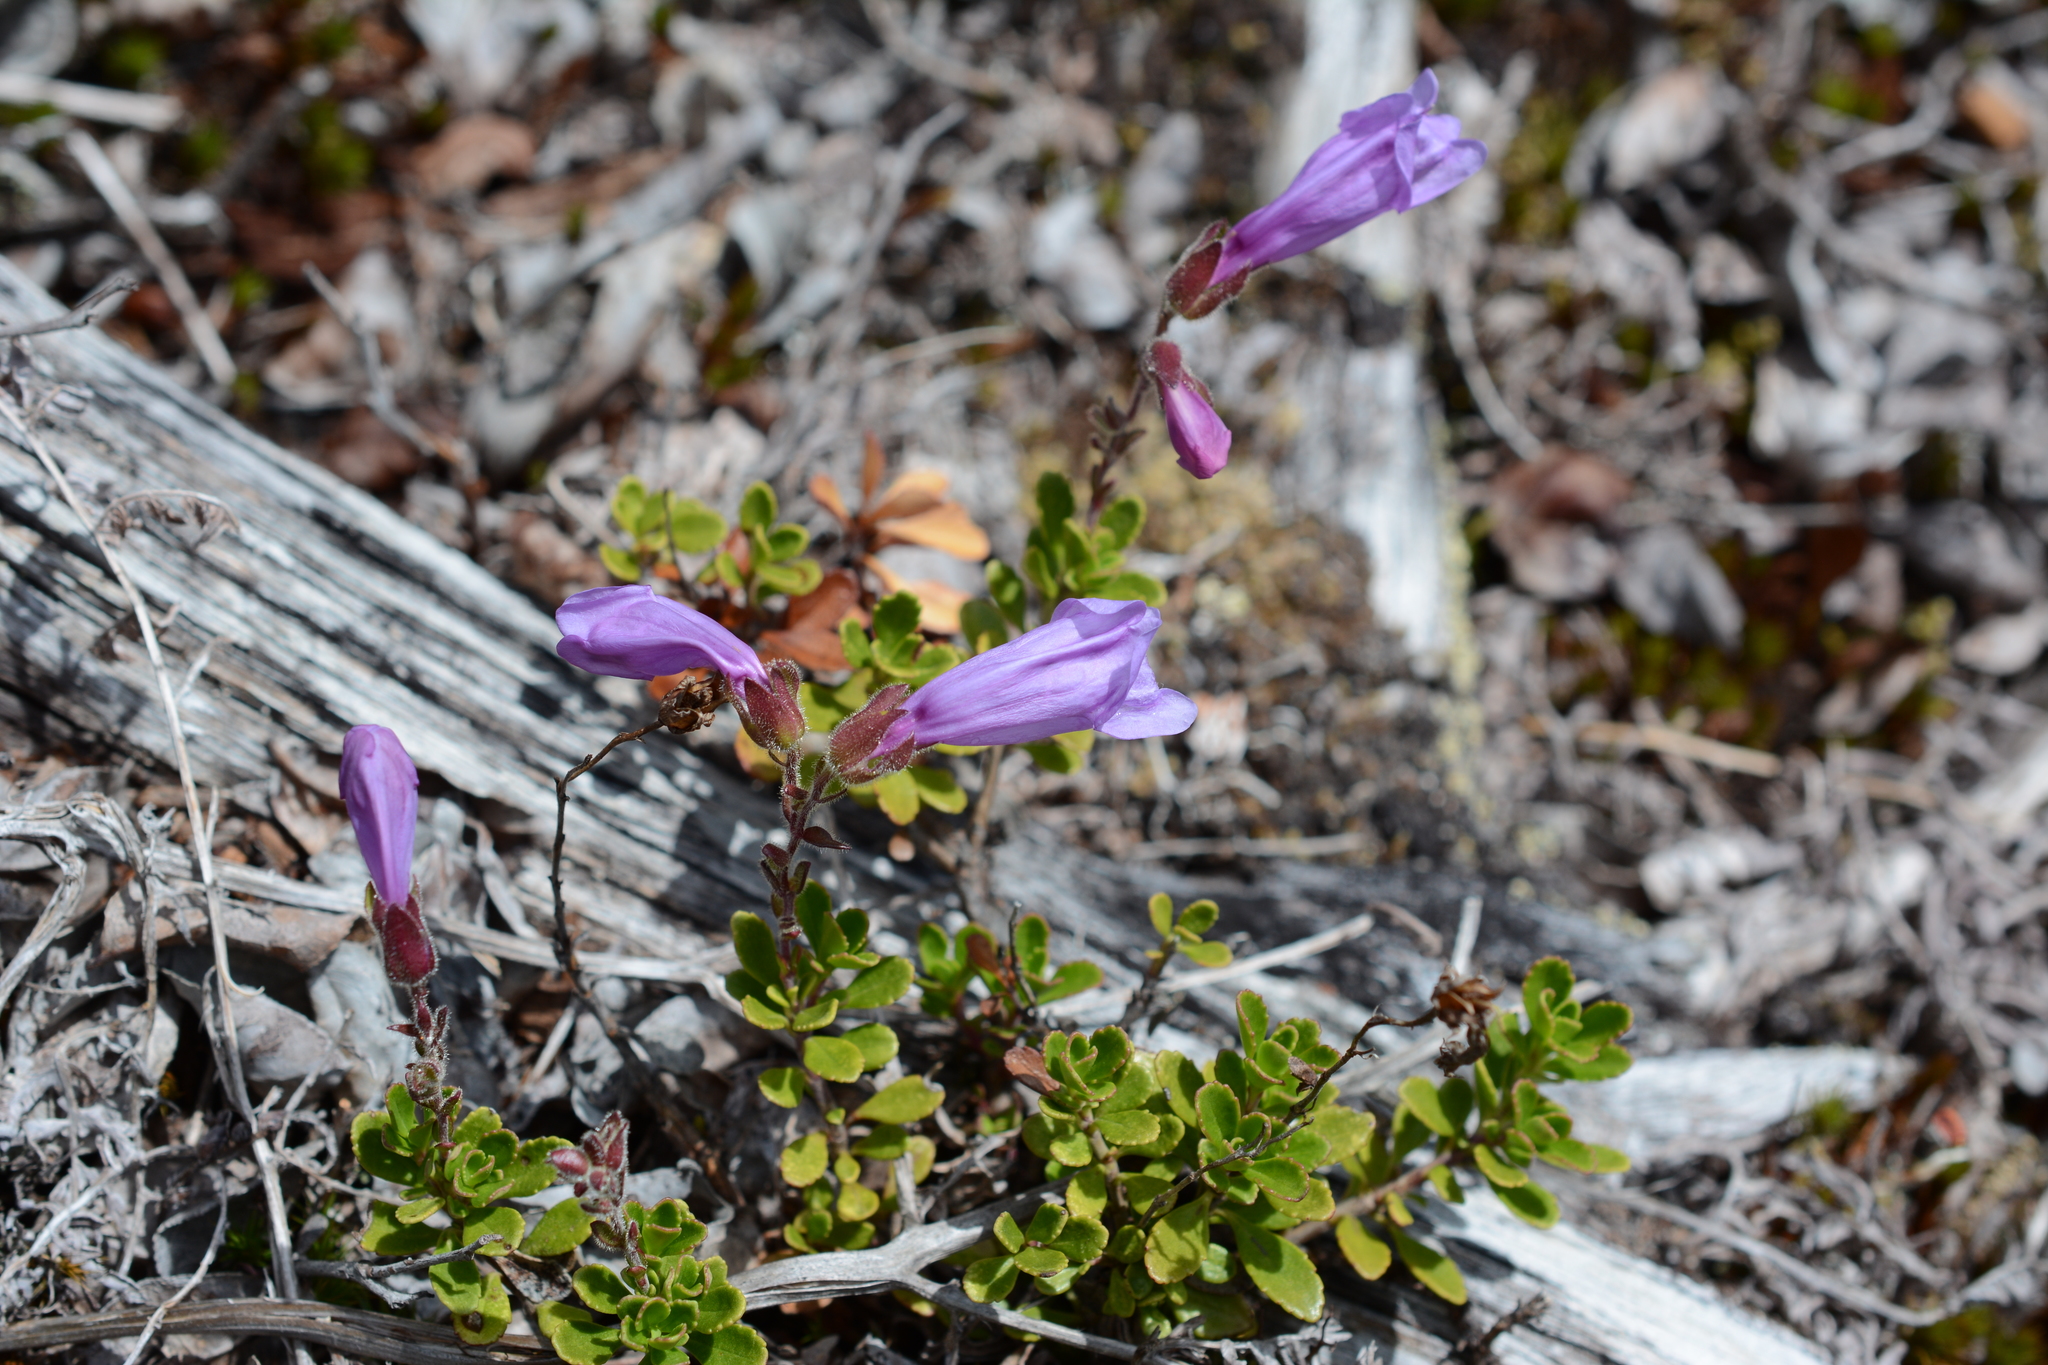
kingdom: Plantae
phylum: Tracheophyta
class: Magnoliopsida
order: Lamiales
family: Plantaginaceae
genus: Penstemon
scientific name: Penstemon davidsonii
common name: Davidson's penstemon
